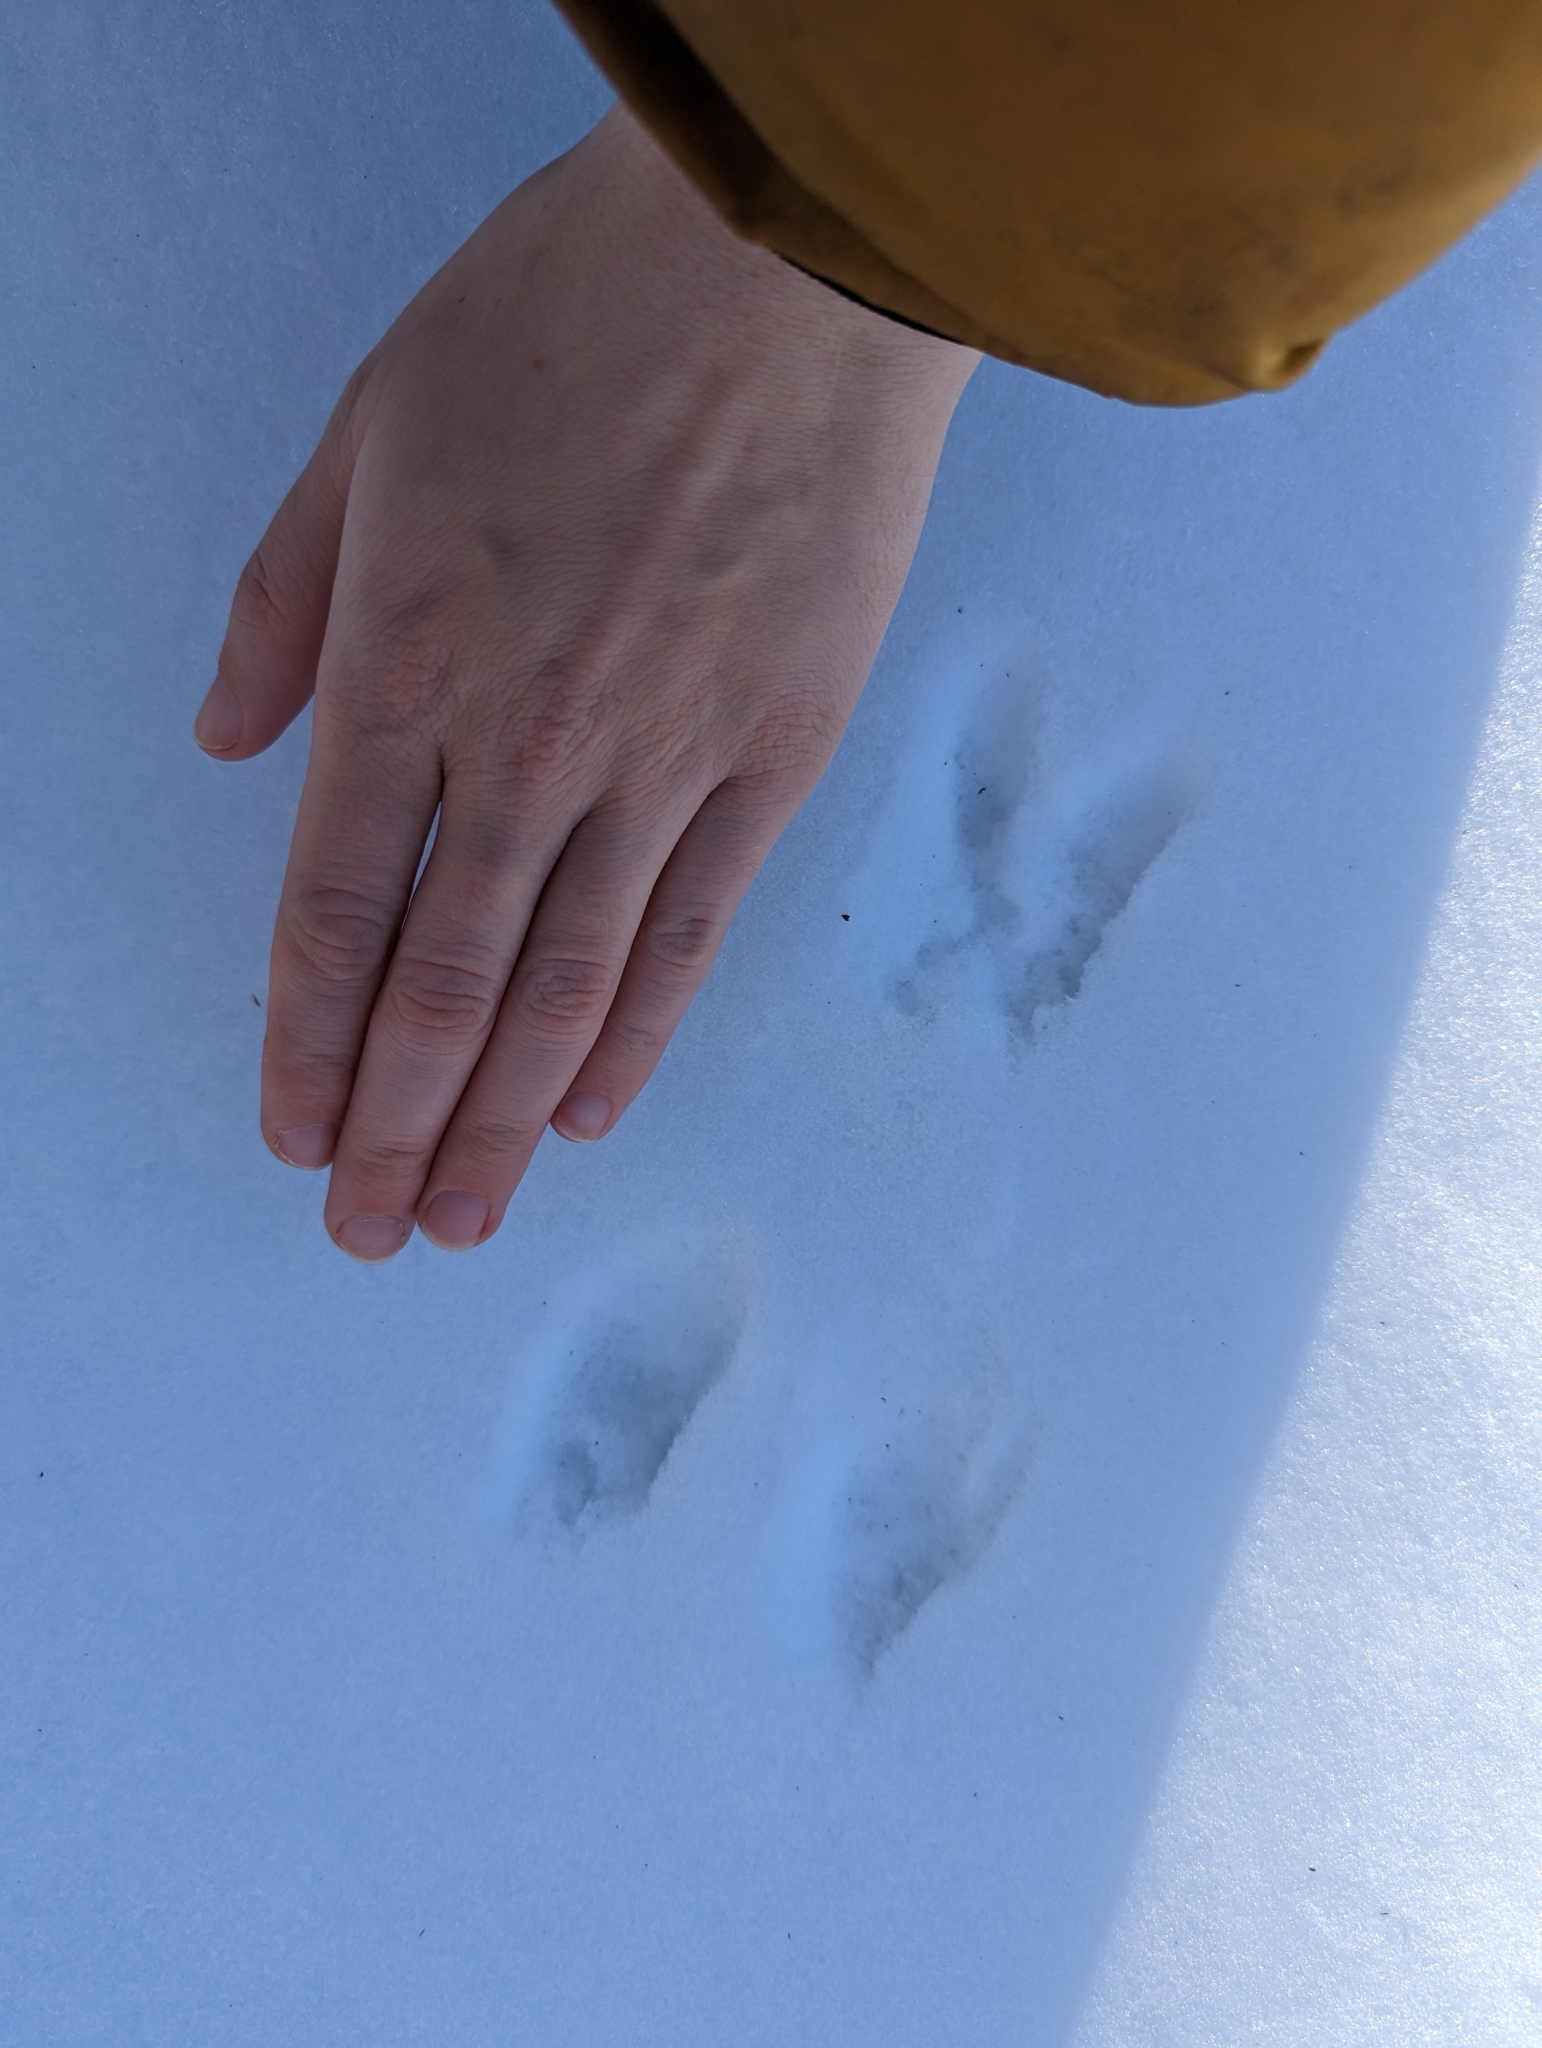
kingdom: Animalia
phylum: Chordata
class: Mammalia
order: Lagomorpha
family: Leporidae
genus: Sylvilagus
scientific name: Sylvilagus floridanus
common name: Eastern cottontail
